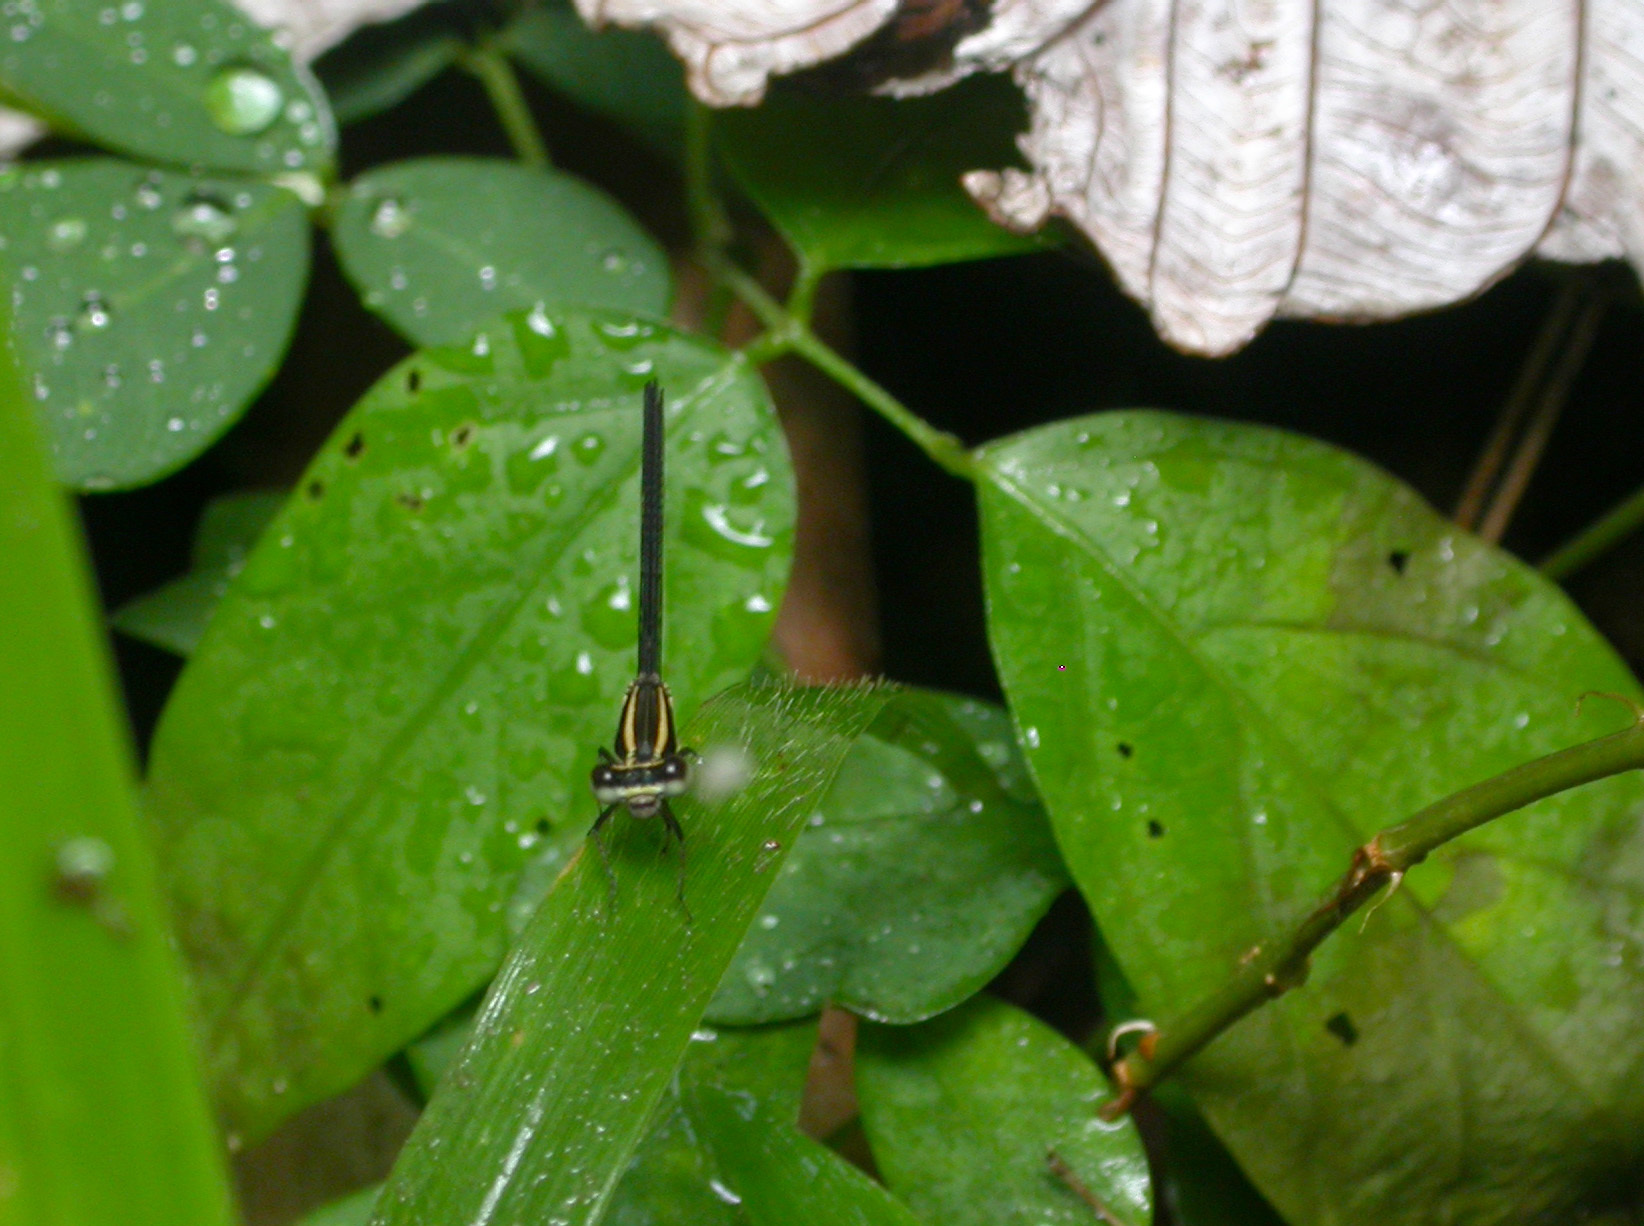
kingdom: Animalia
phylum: Arthropoda
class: Insecta
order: Odonata
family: Coenagrionidae
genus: Argia
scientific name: Argia concinna
